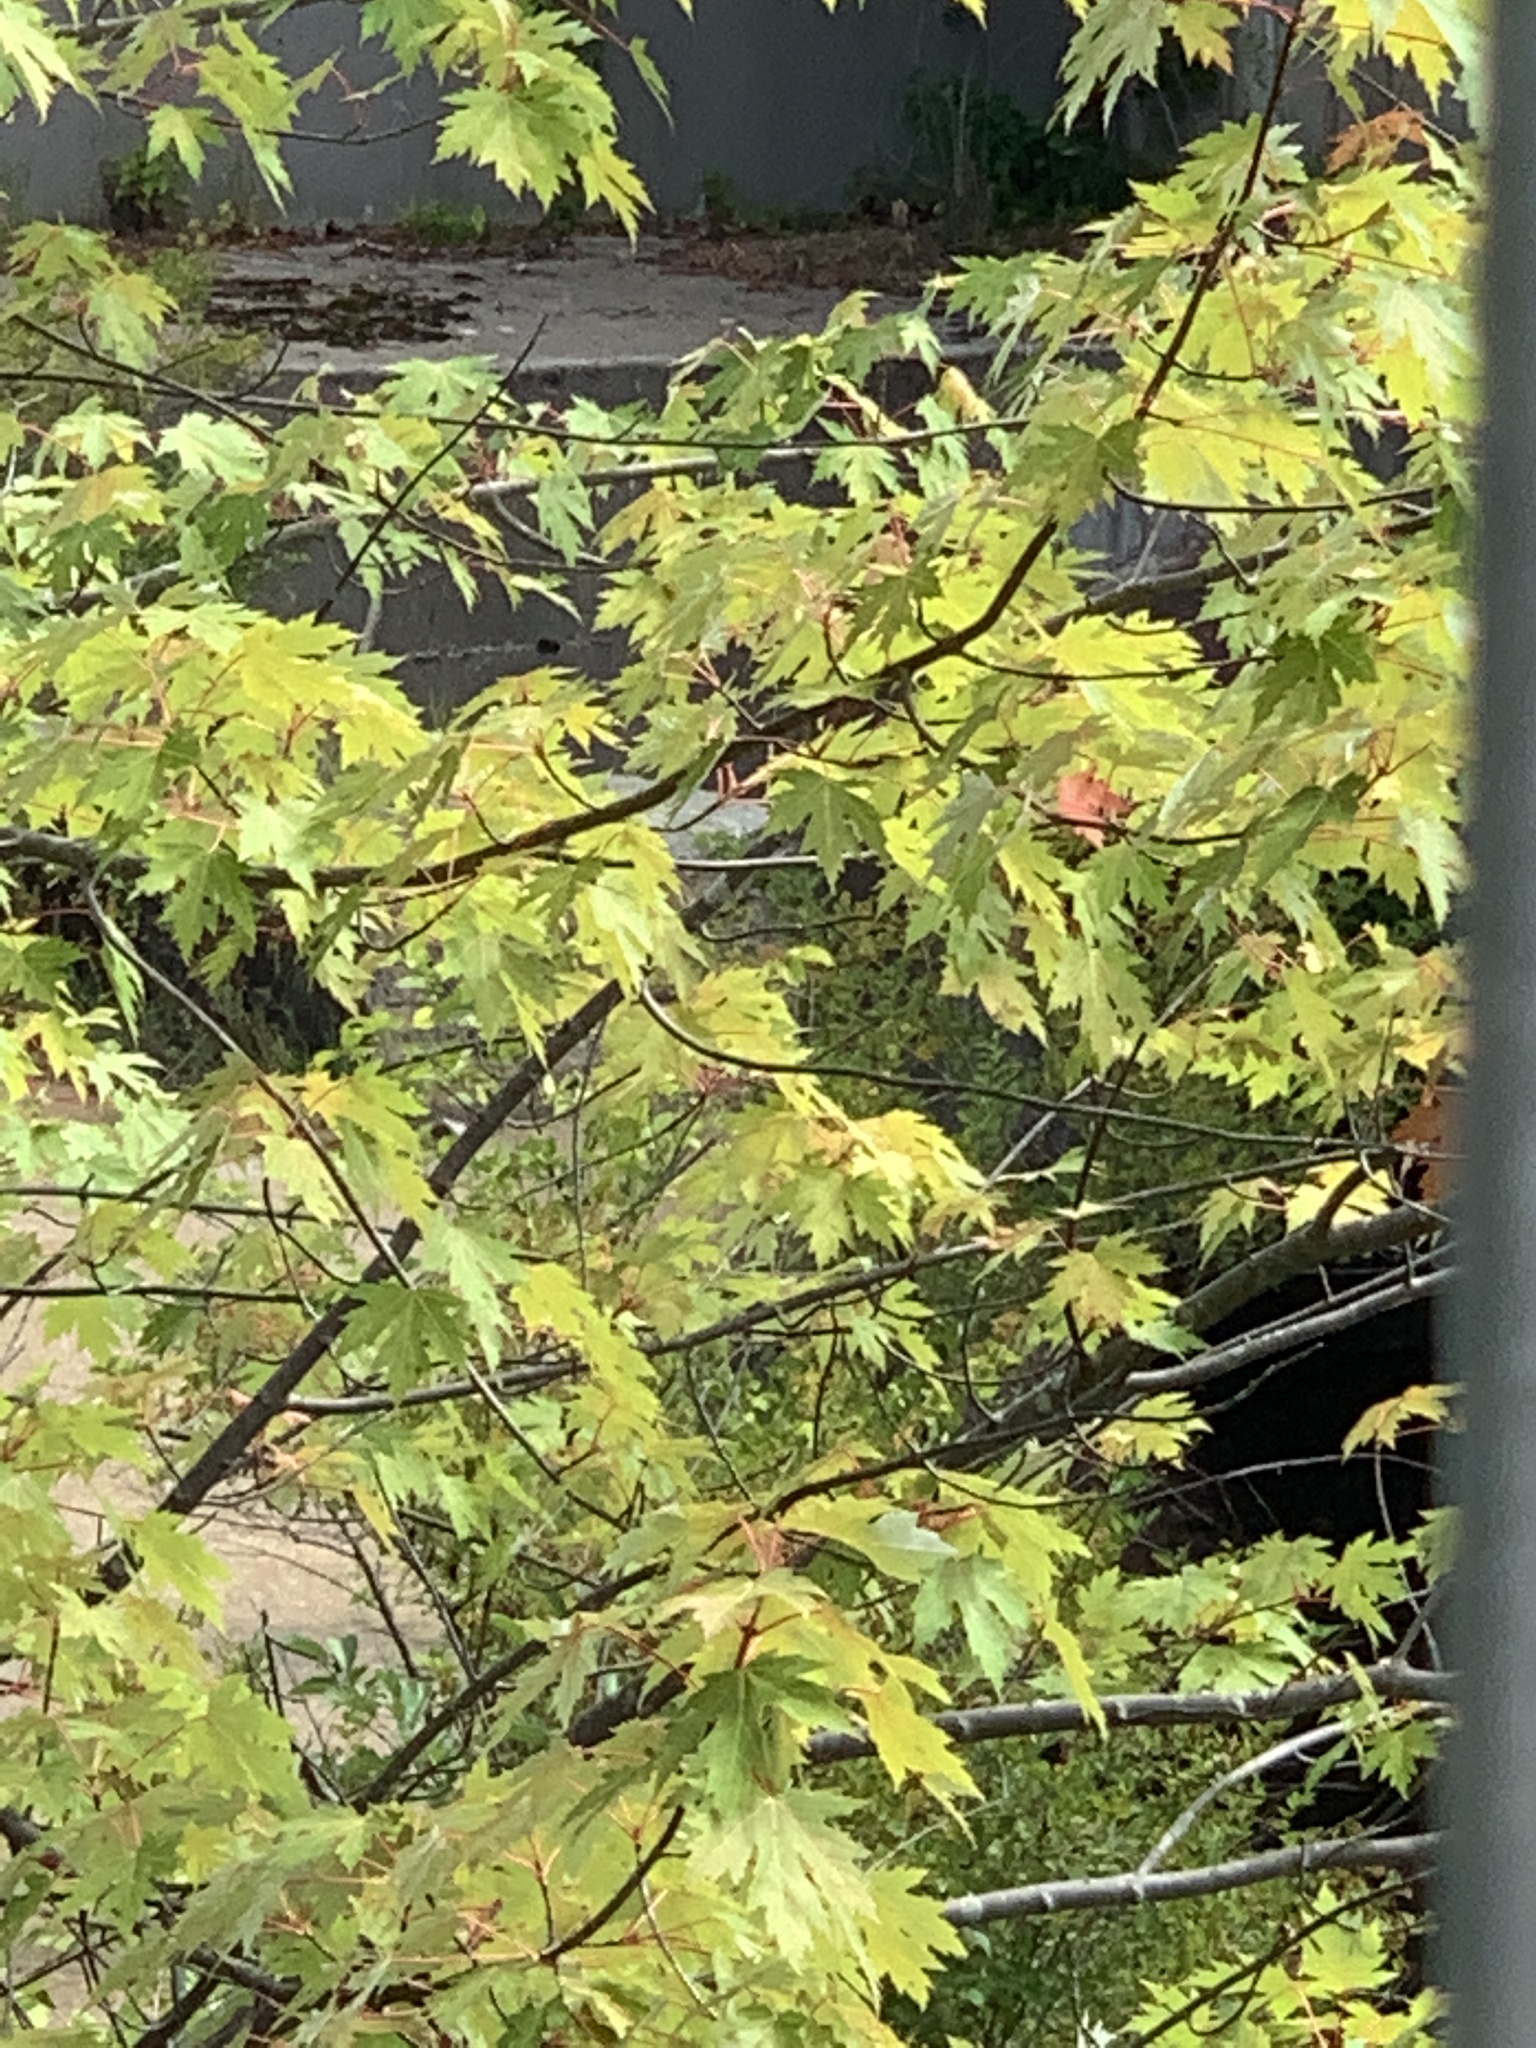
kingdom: Plantae
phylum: Tracheophyta
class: Magnoliopsida
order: Sapindales
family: Sapindaceae
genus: Acer
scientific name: Acer saccharinum
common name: Silver maple
